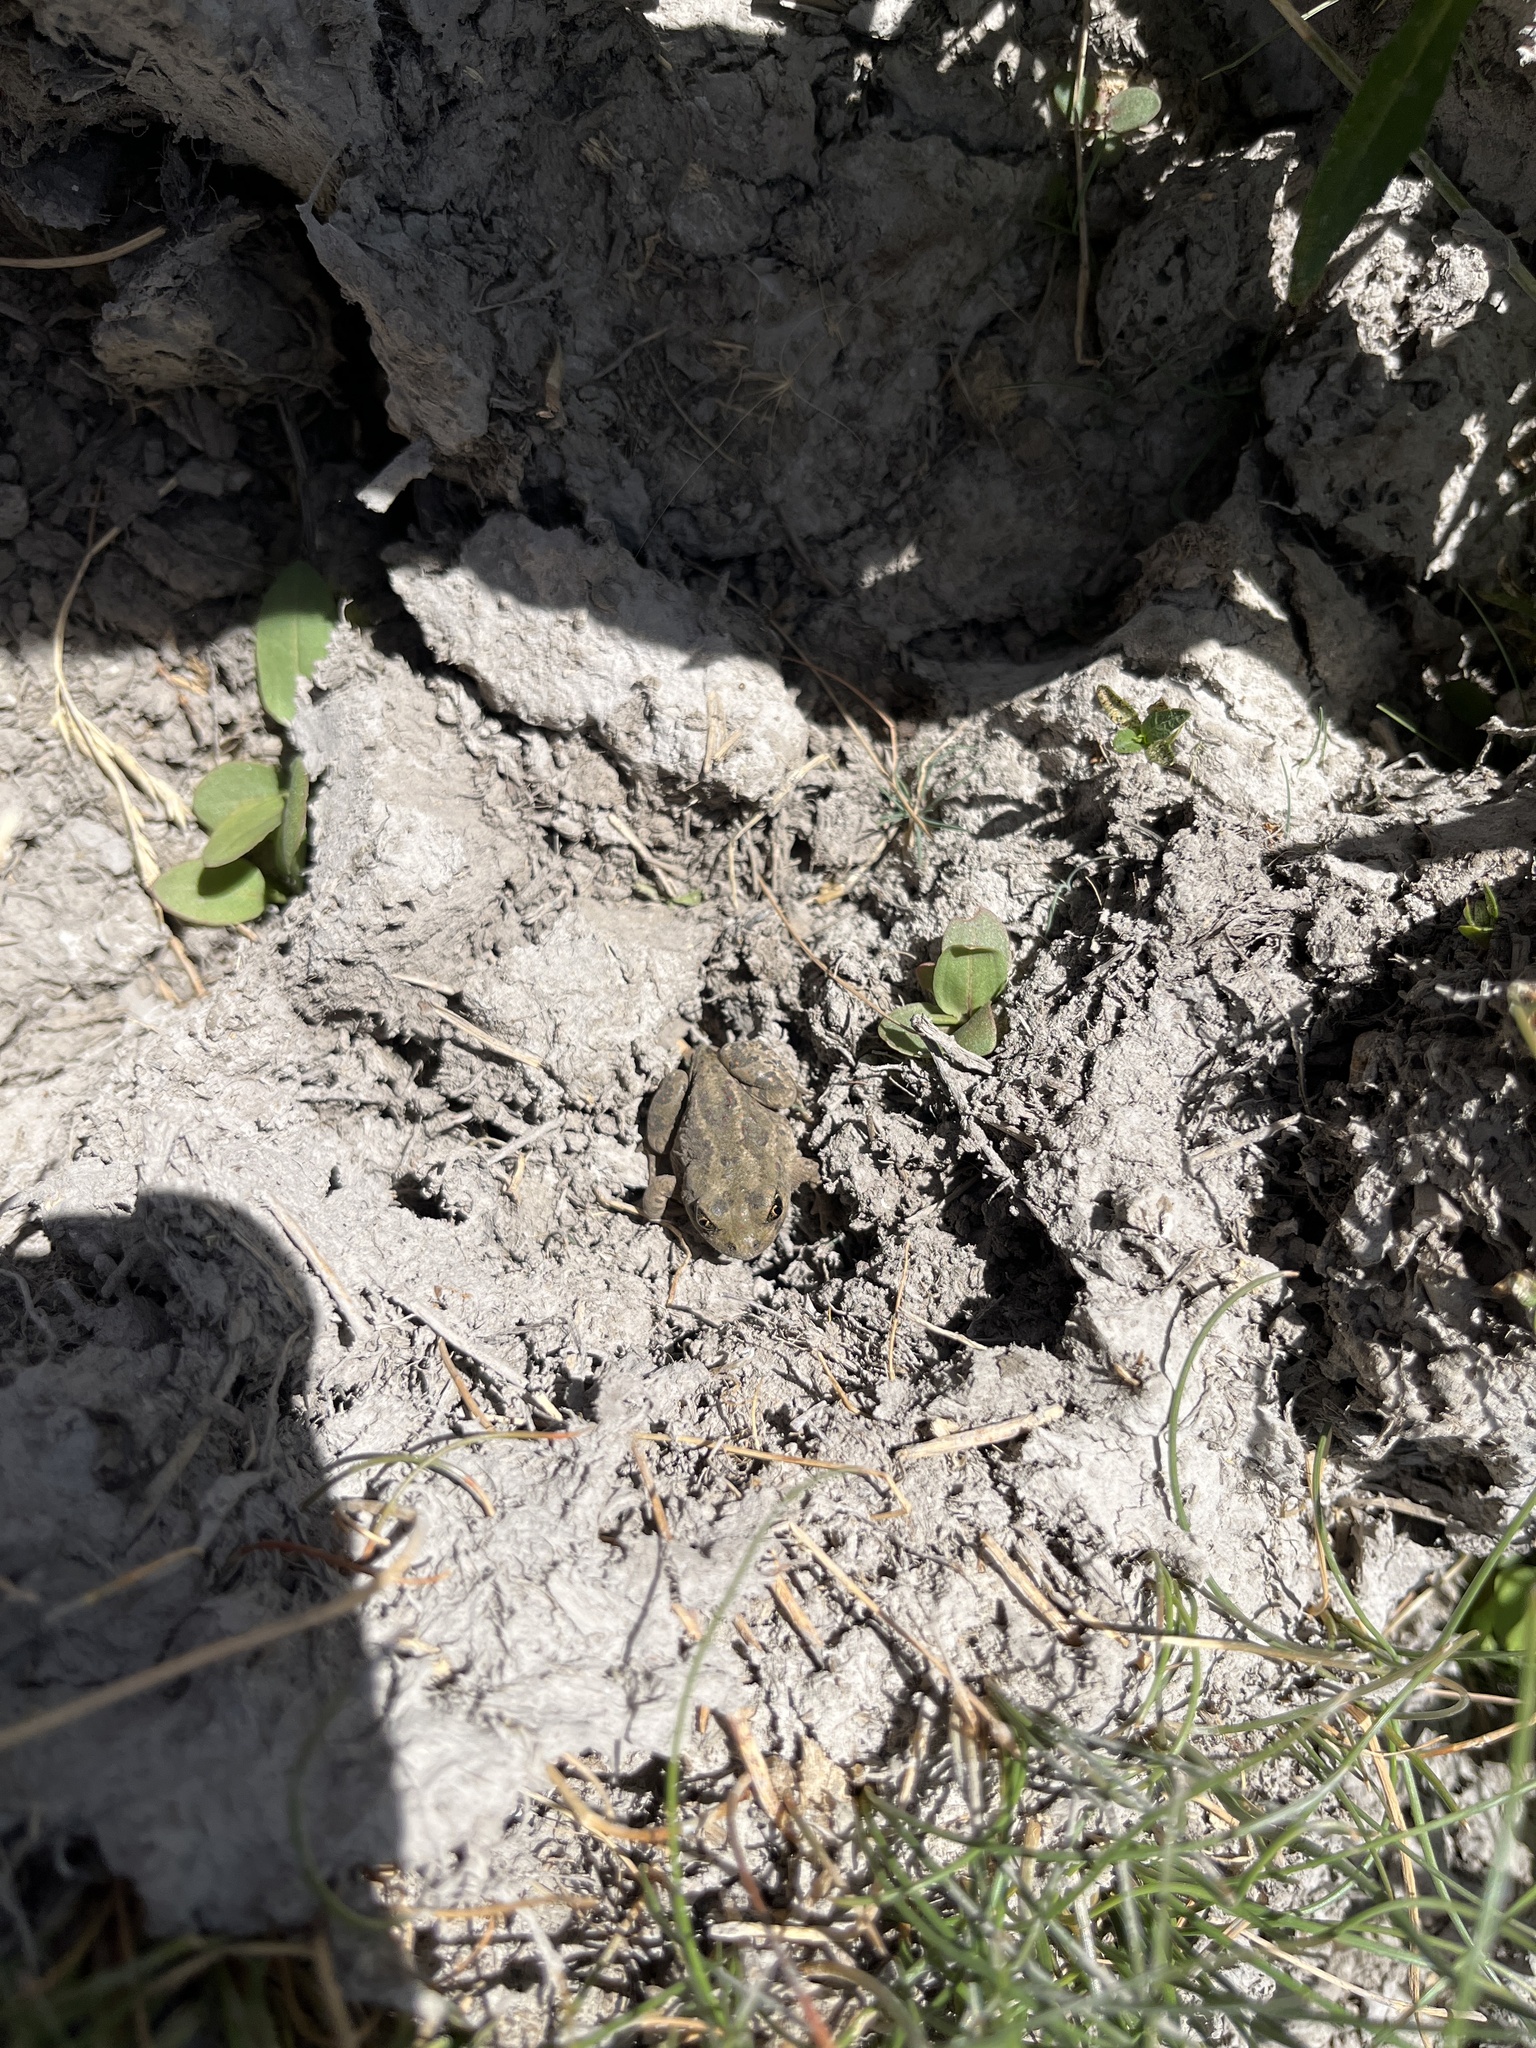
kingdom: Animalia
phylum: Chordata
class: Amphibia
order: Anura
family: Scaphiopodidae
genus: Spea
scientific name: Spea intermontana
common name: Great basin spadefoot
